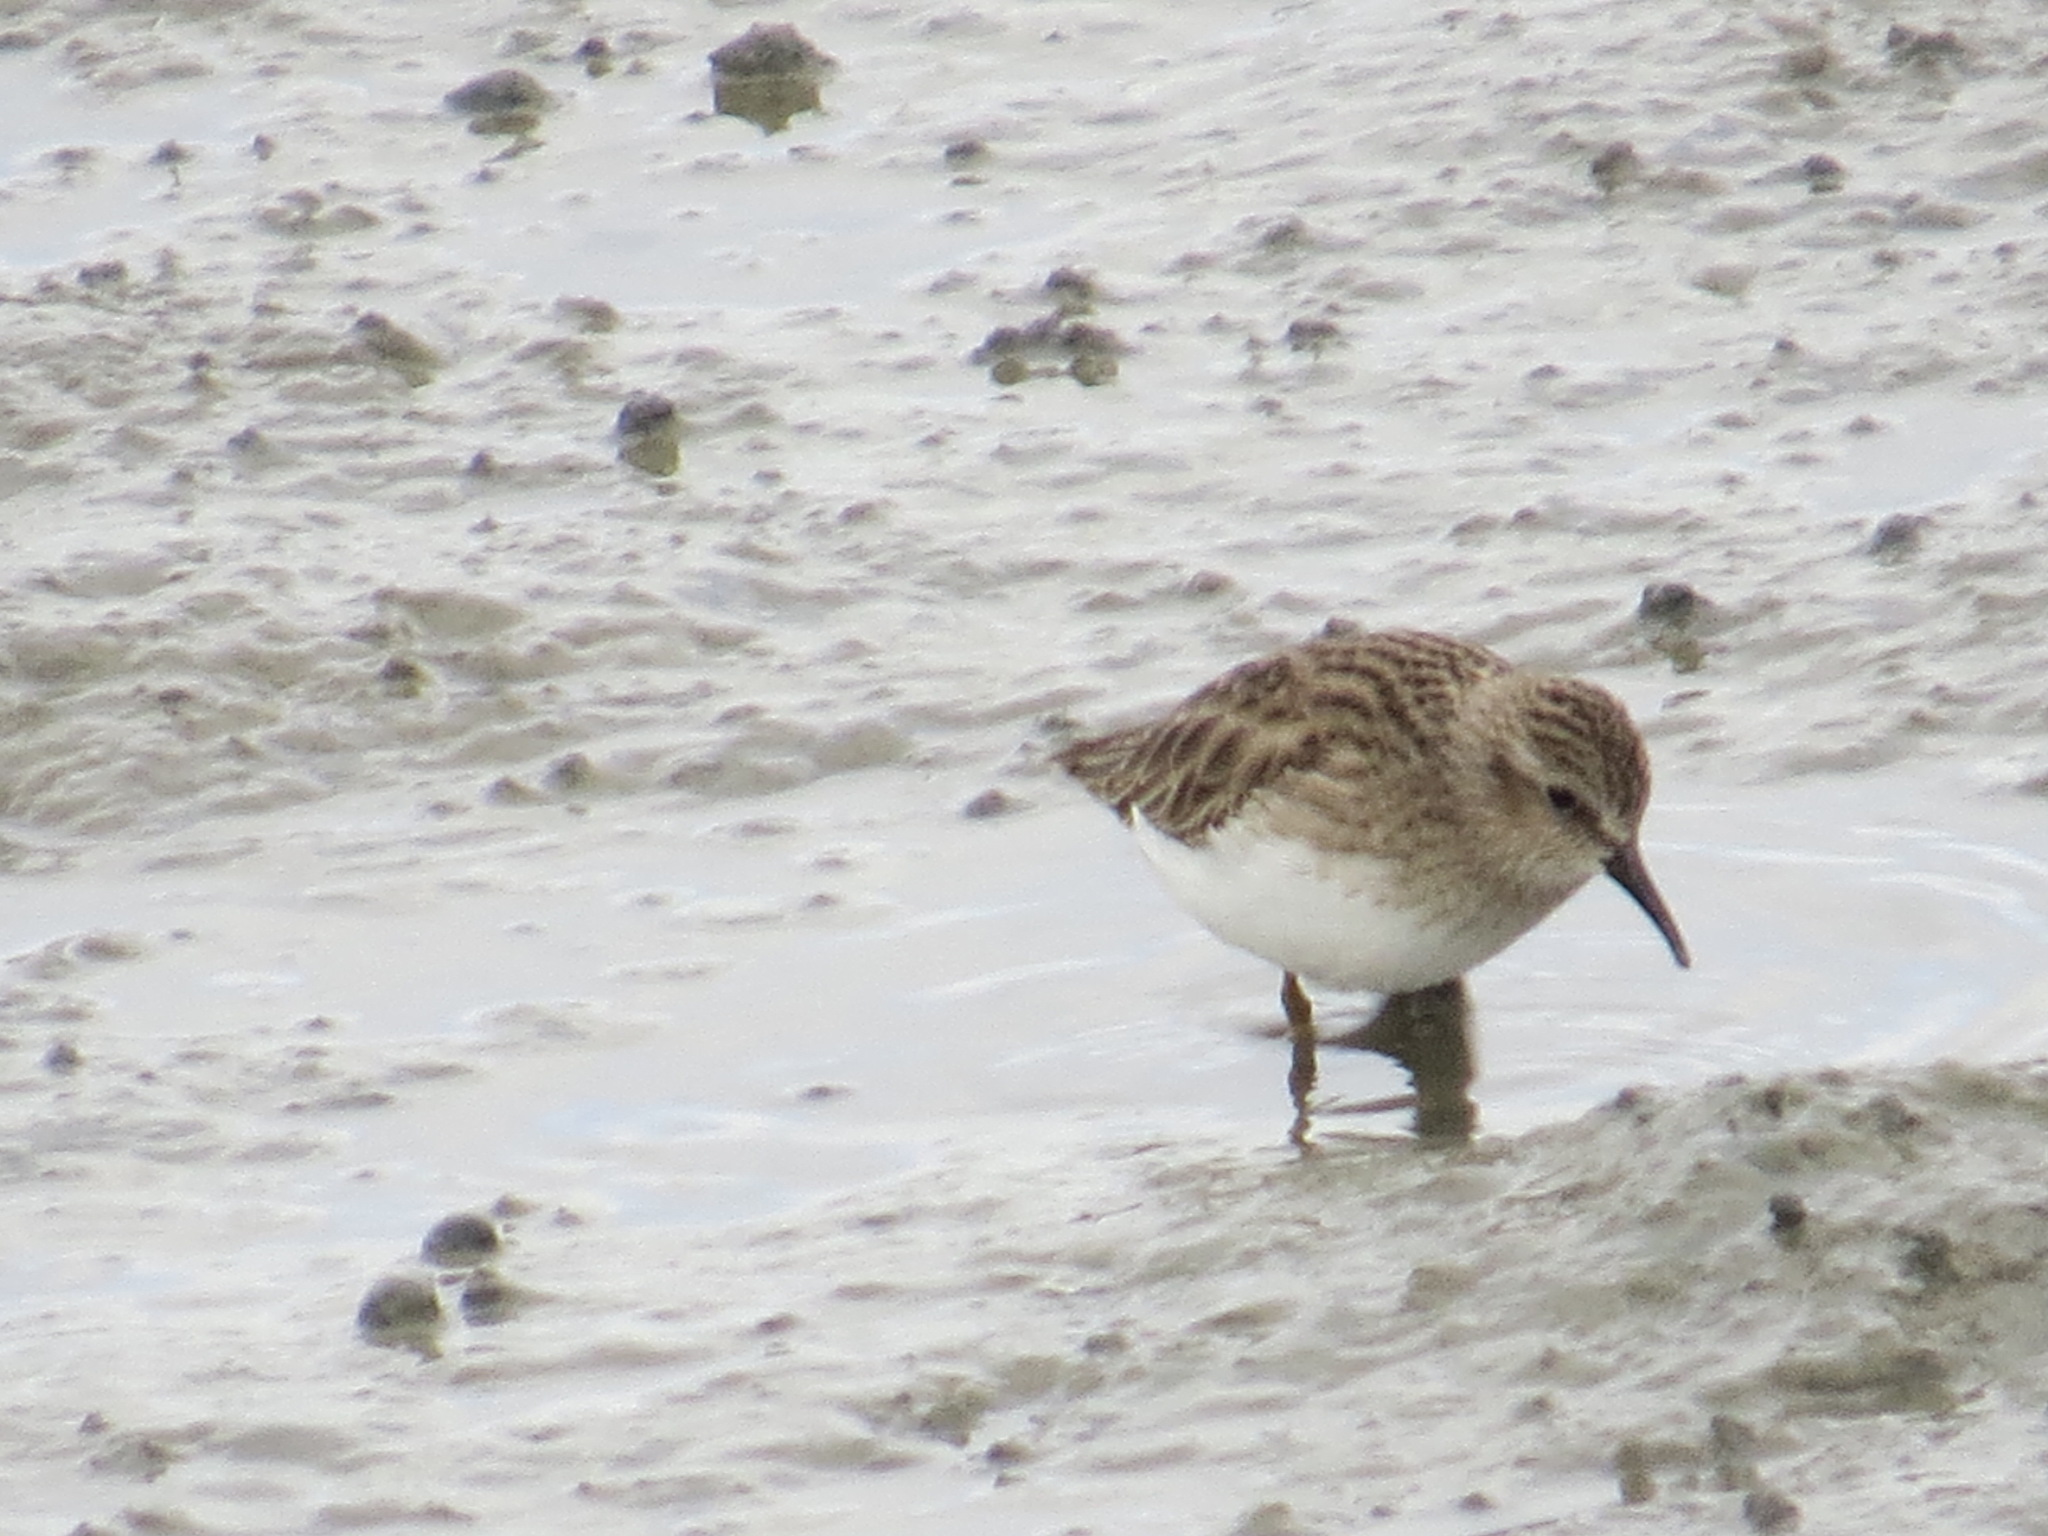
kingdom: Animalia
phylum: Chordata
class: Aves
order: Charadriiformes
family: Scolopacidae
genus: Calidris
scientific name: Calidris minutilla
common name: Least sandpiper
